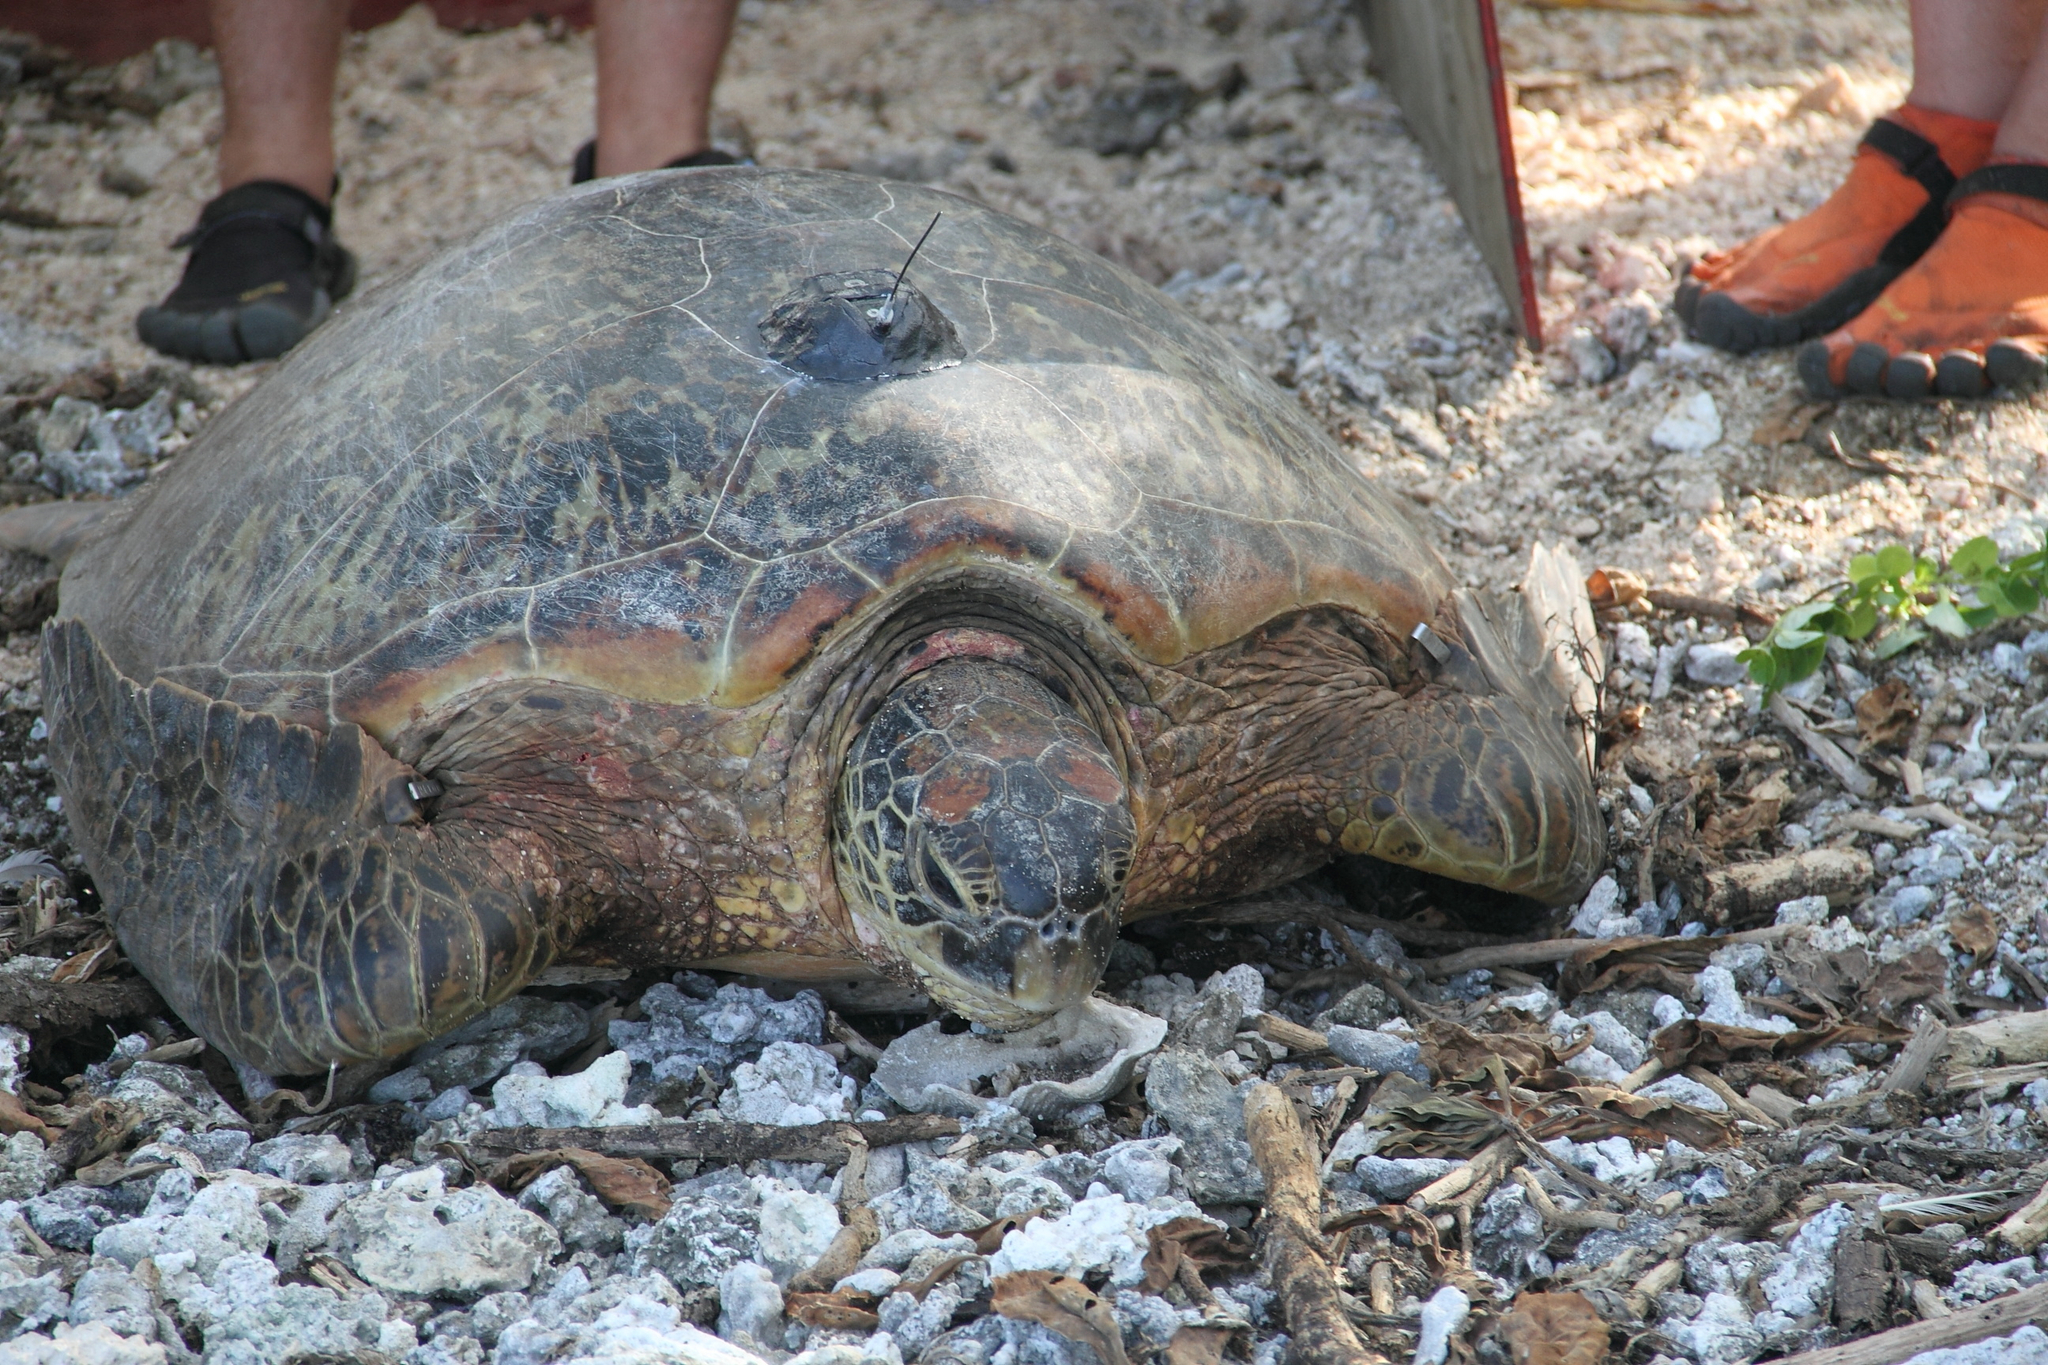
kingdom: Animalia
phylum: Chordata
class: Testudines
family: Cheloniidae
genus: Chelonia
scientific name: Chelonia mydas
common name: Green turtle
